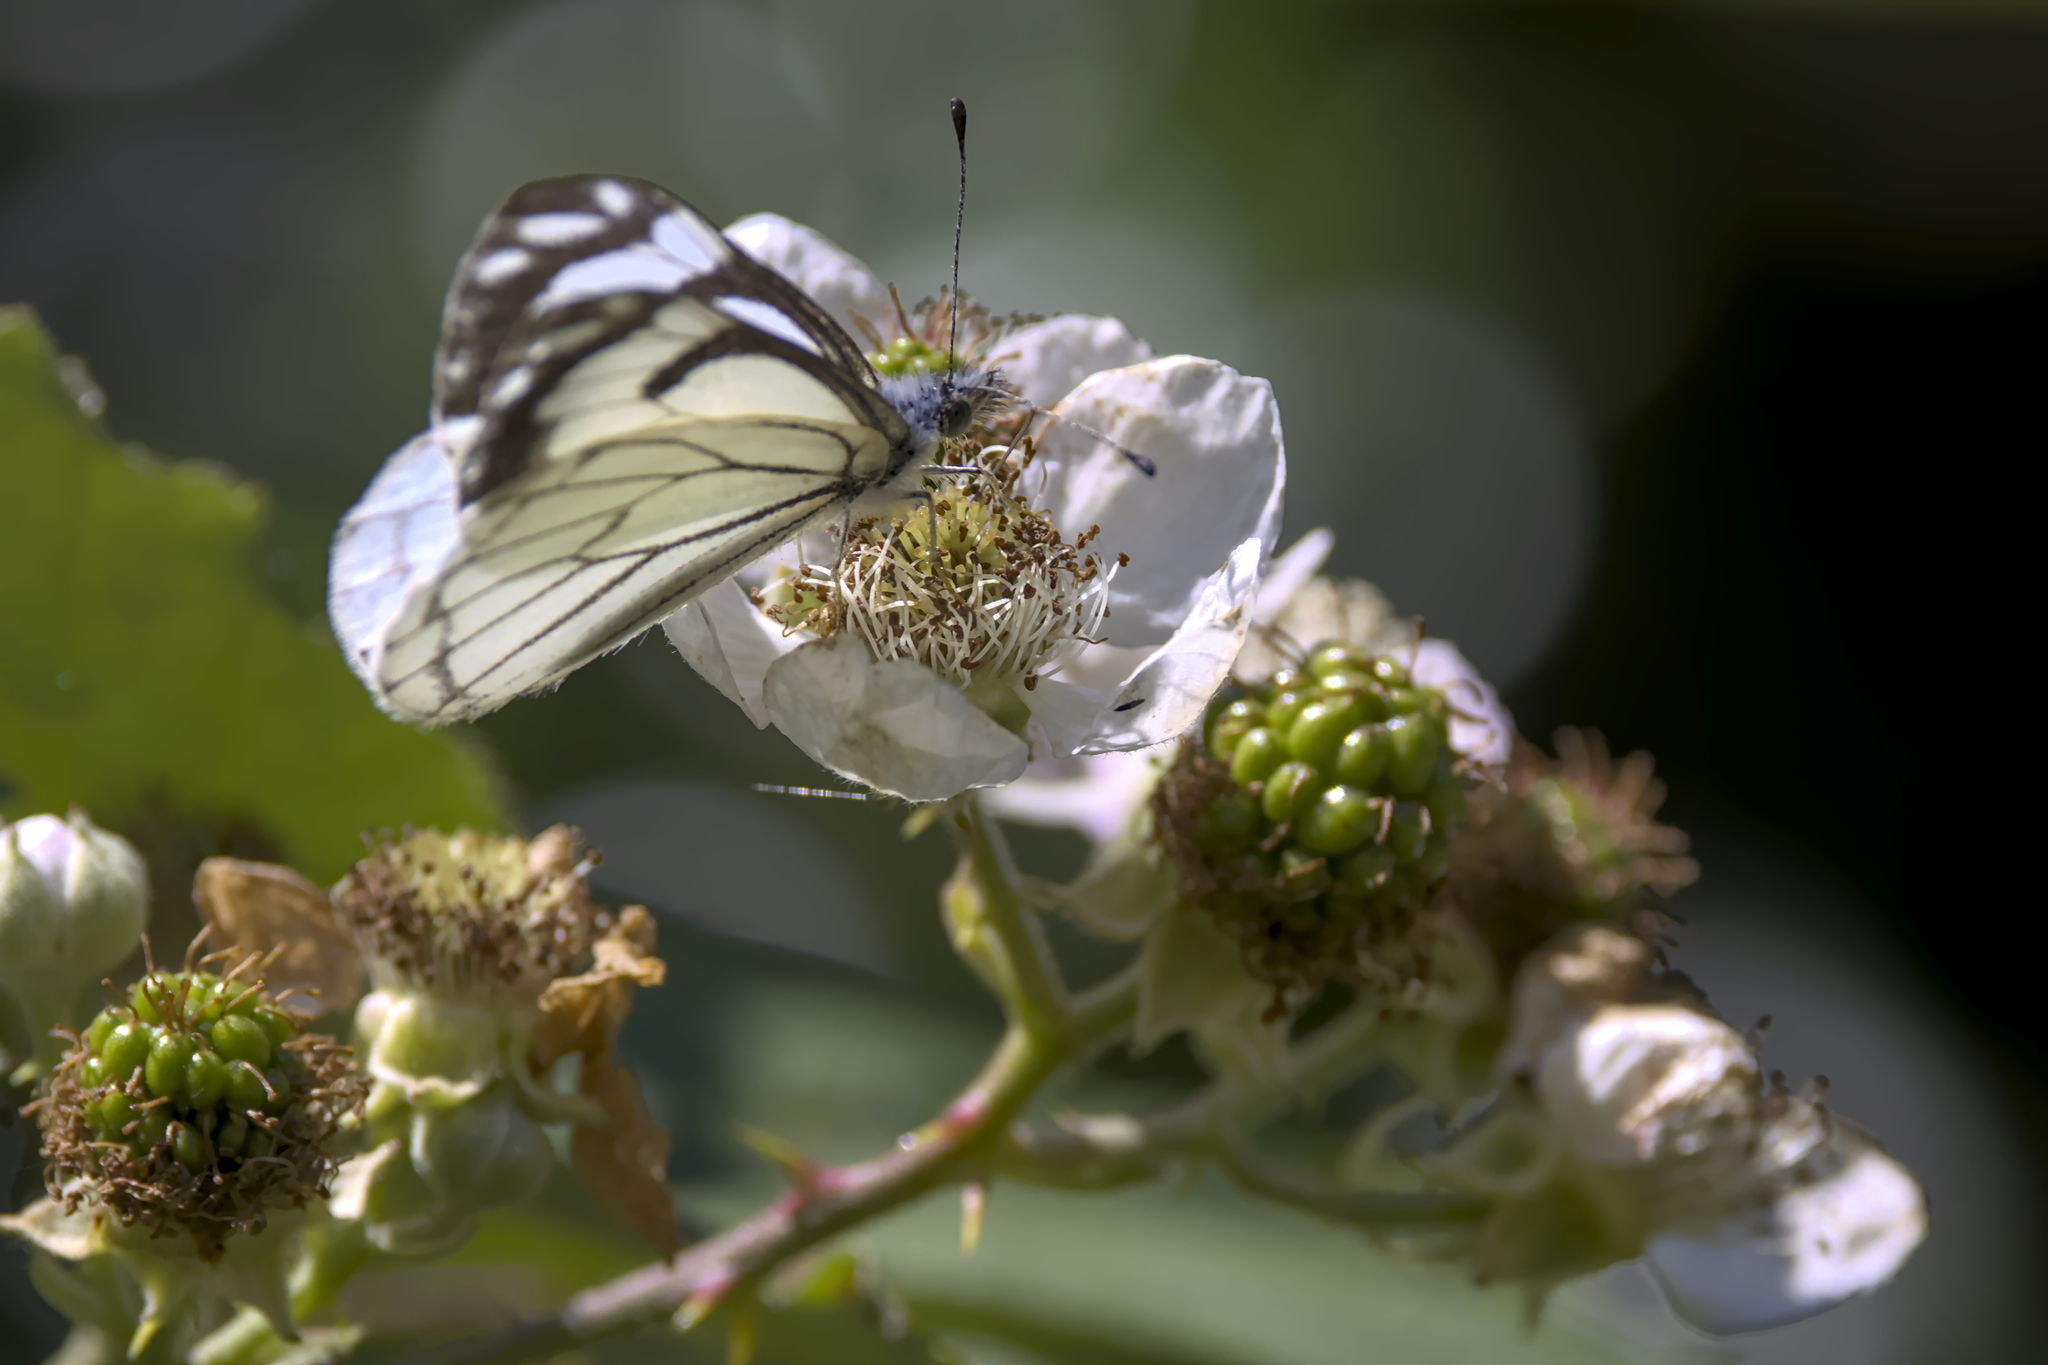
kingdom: Animalia
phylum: Arthropoda
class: Insecta
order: Lepidoptera
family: Pieridae
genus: Neophasia
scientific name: Neophasia menapia
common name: Pine white
